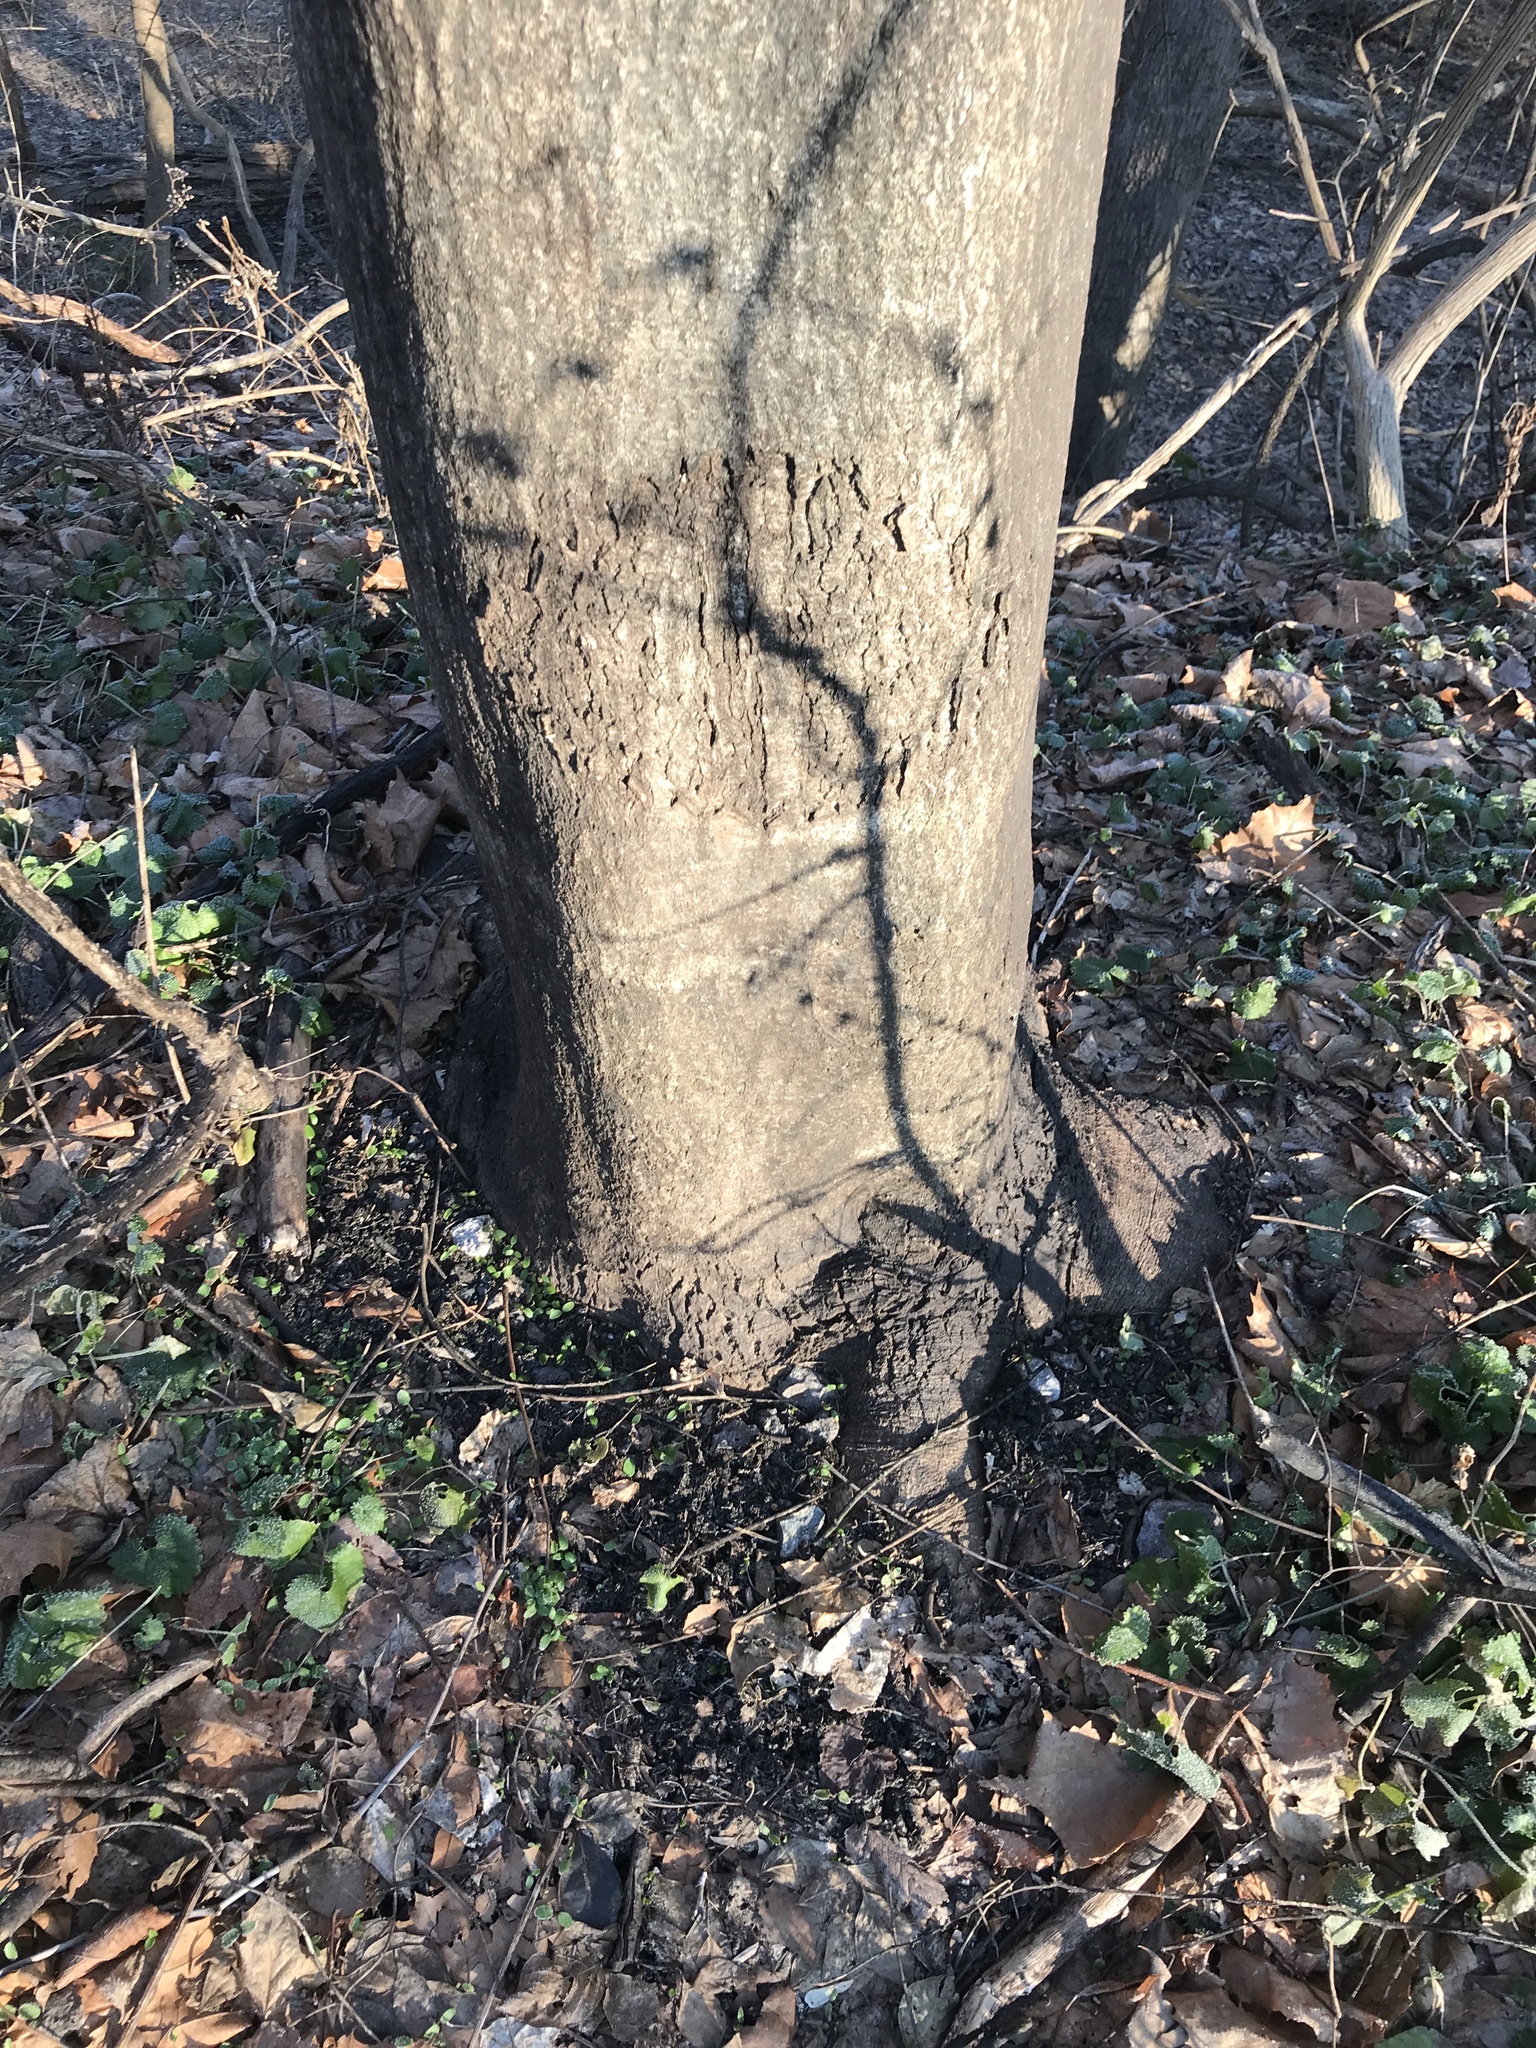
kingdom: Plantae
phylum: Tracheophyta
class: Magnoliopsida
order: Sapindales
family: Simaroubaceae
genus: Ailanthus
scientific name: Ailanthus altissima
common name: Tree-of-heaven
